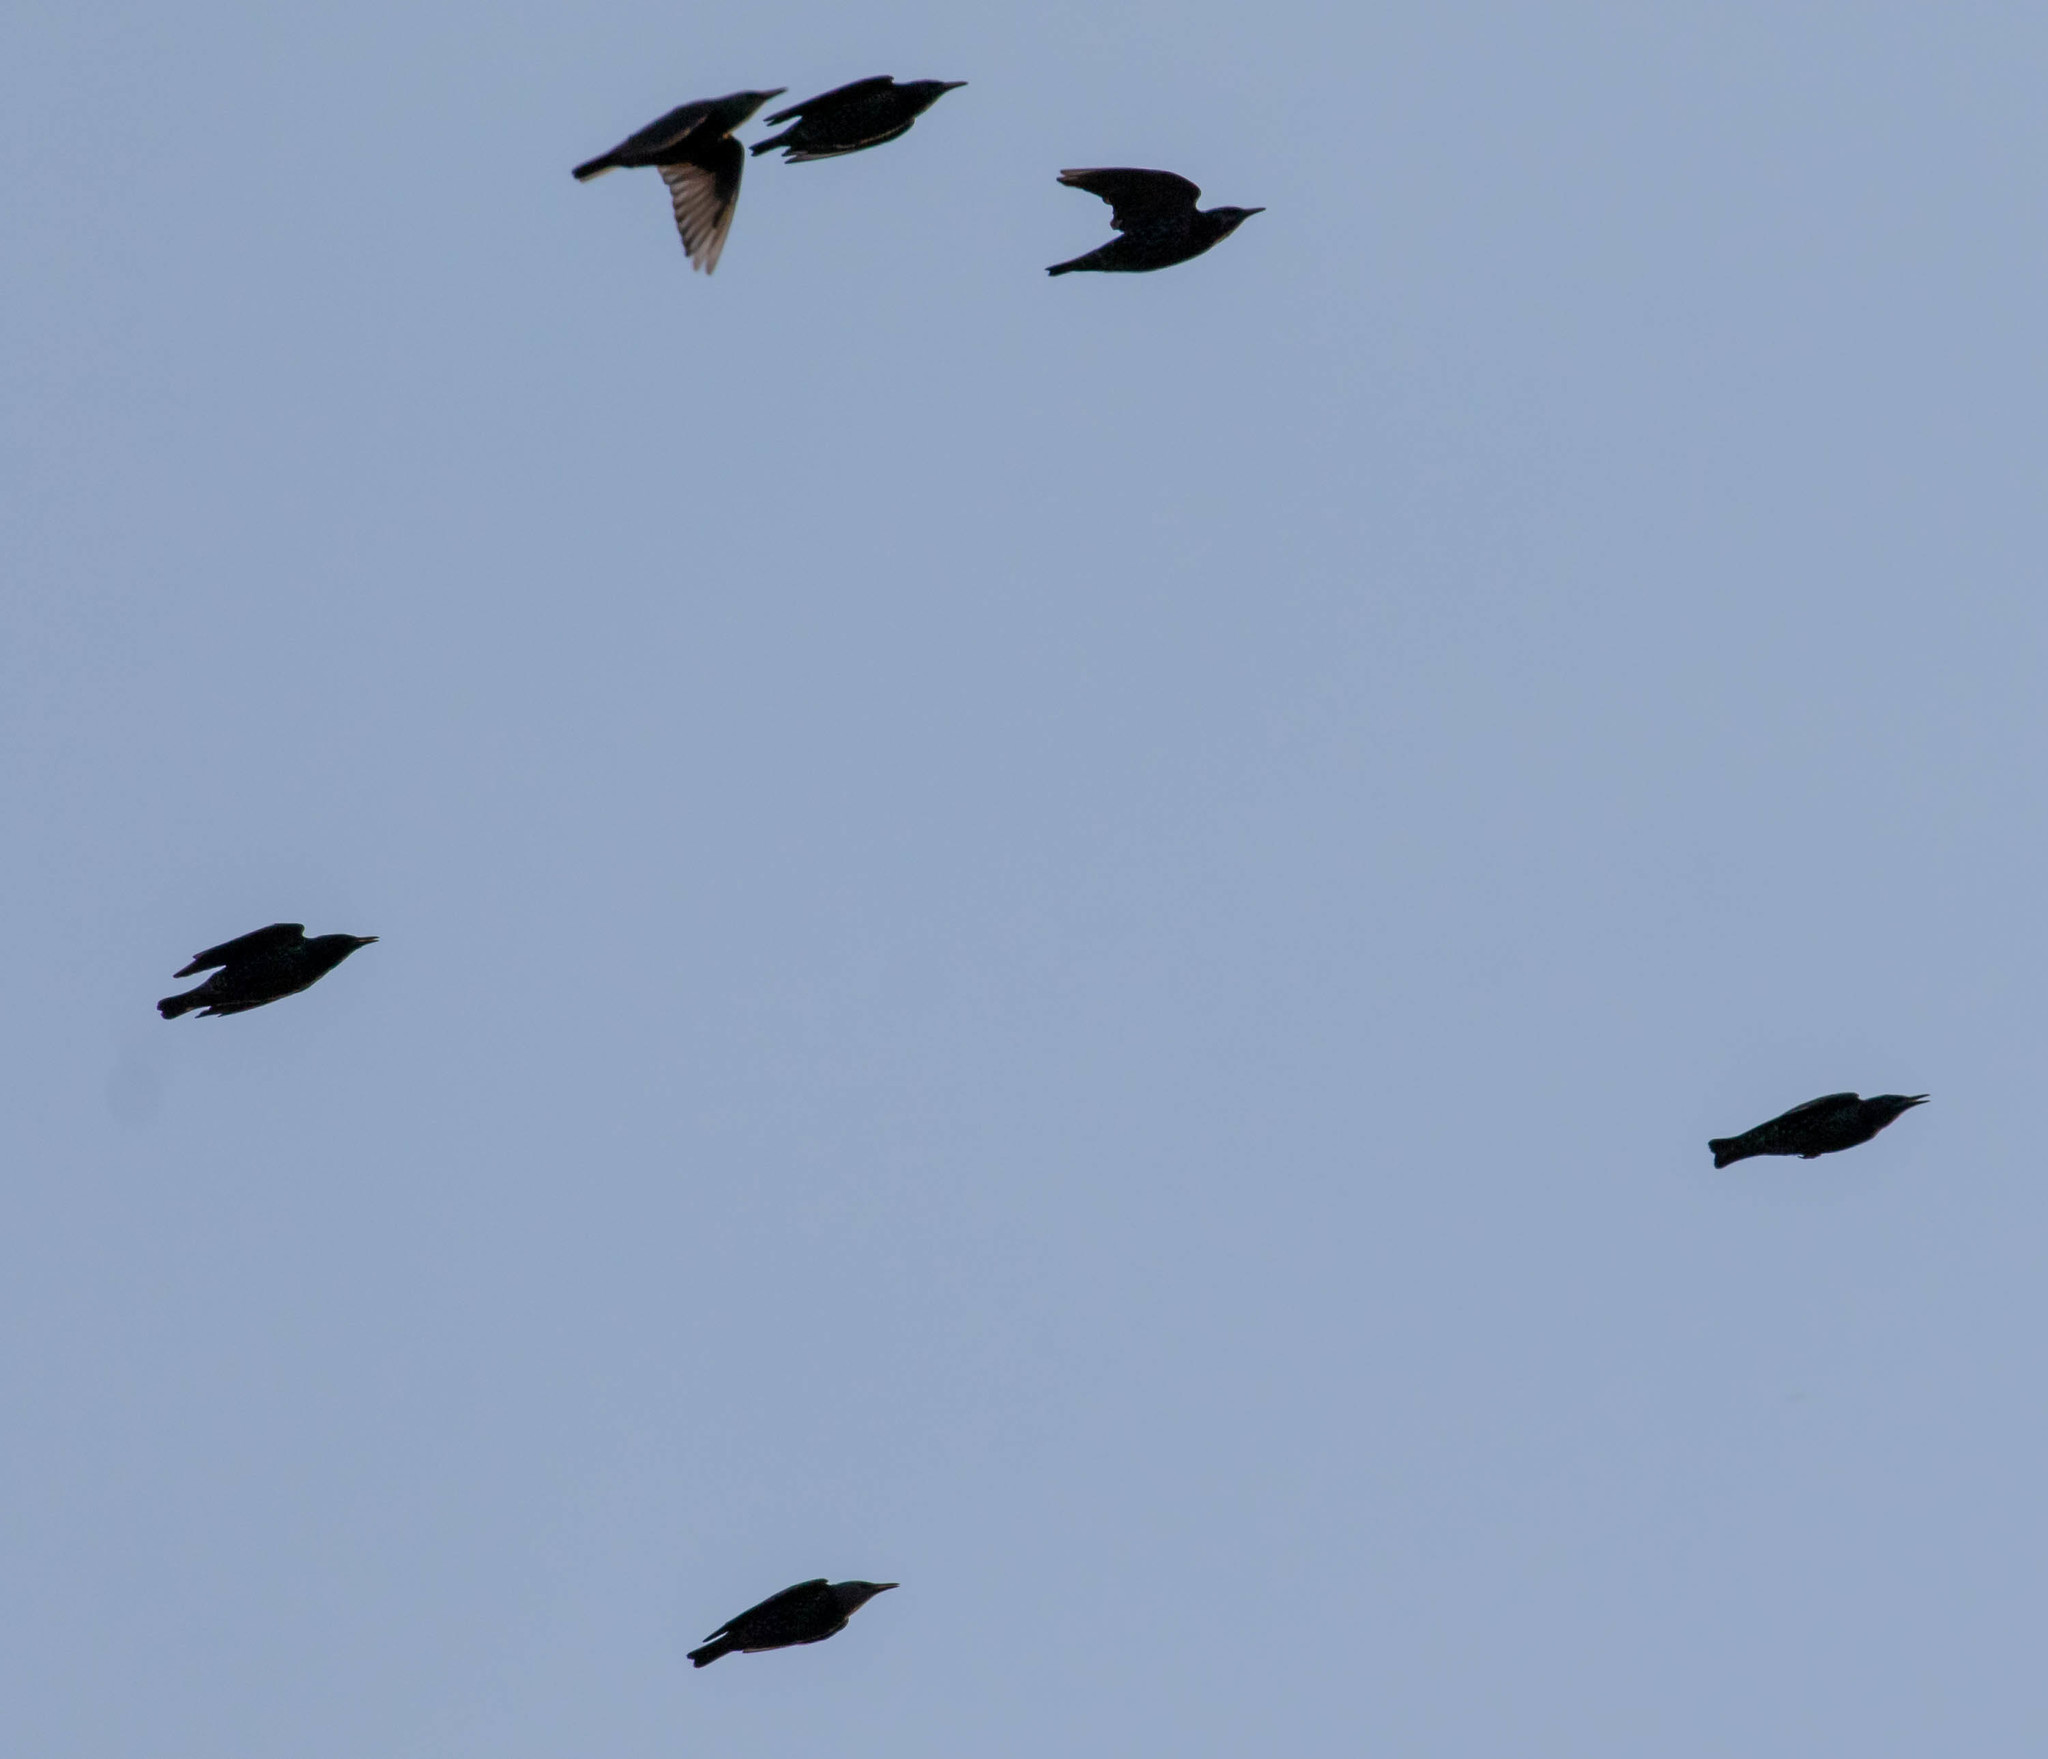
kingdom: Animalia
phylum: Chordata
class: Aves
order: Passeriformes
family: Sturnidae
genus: Sturnus
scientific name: Sturnus vulgaris
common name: Common starling
